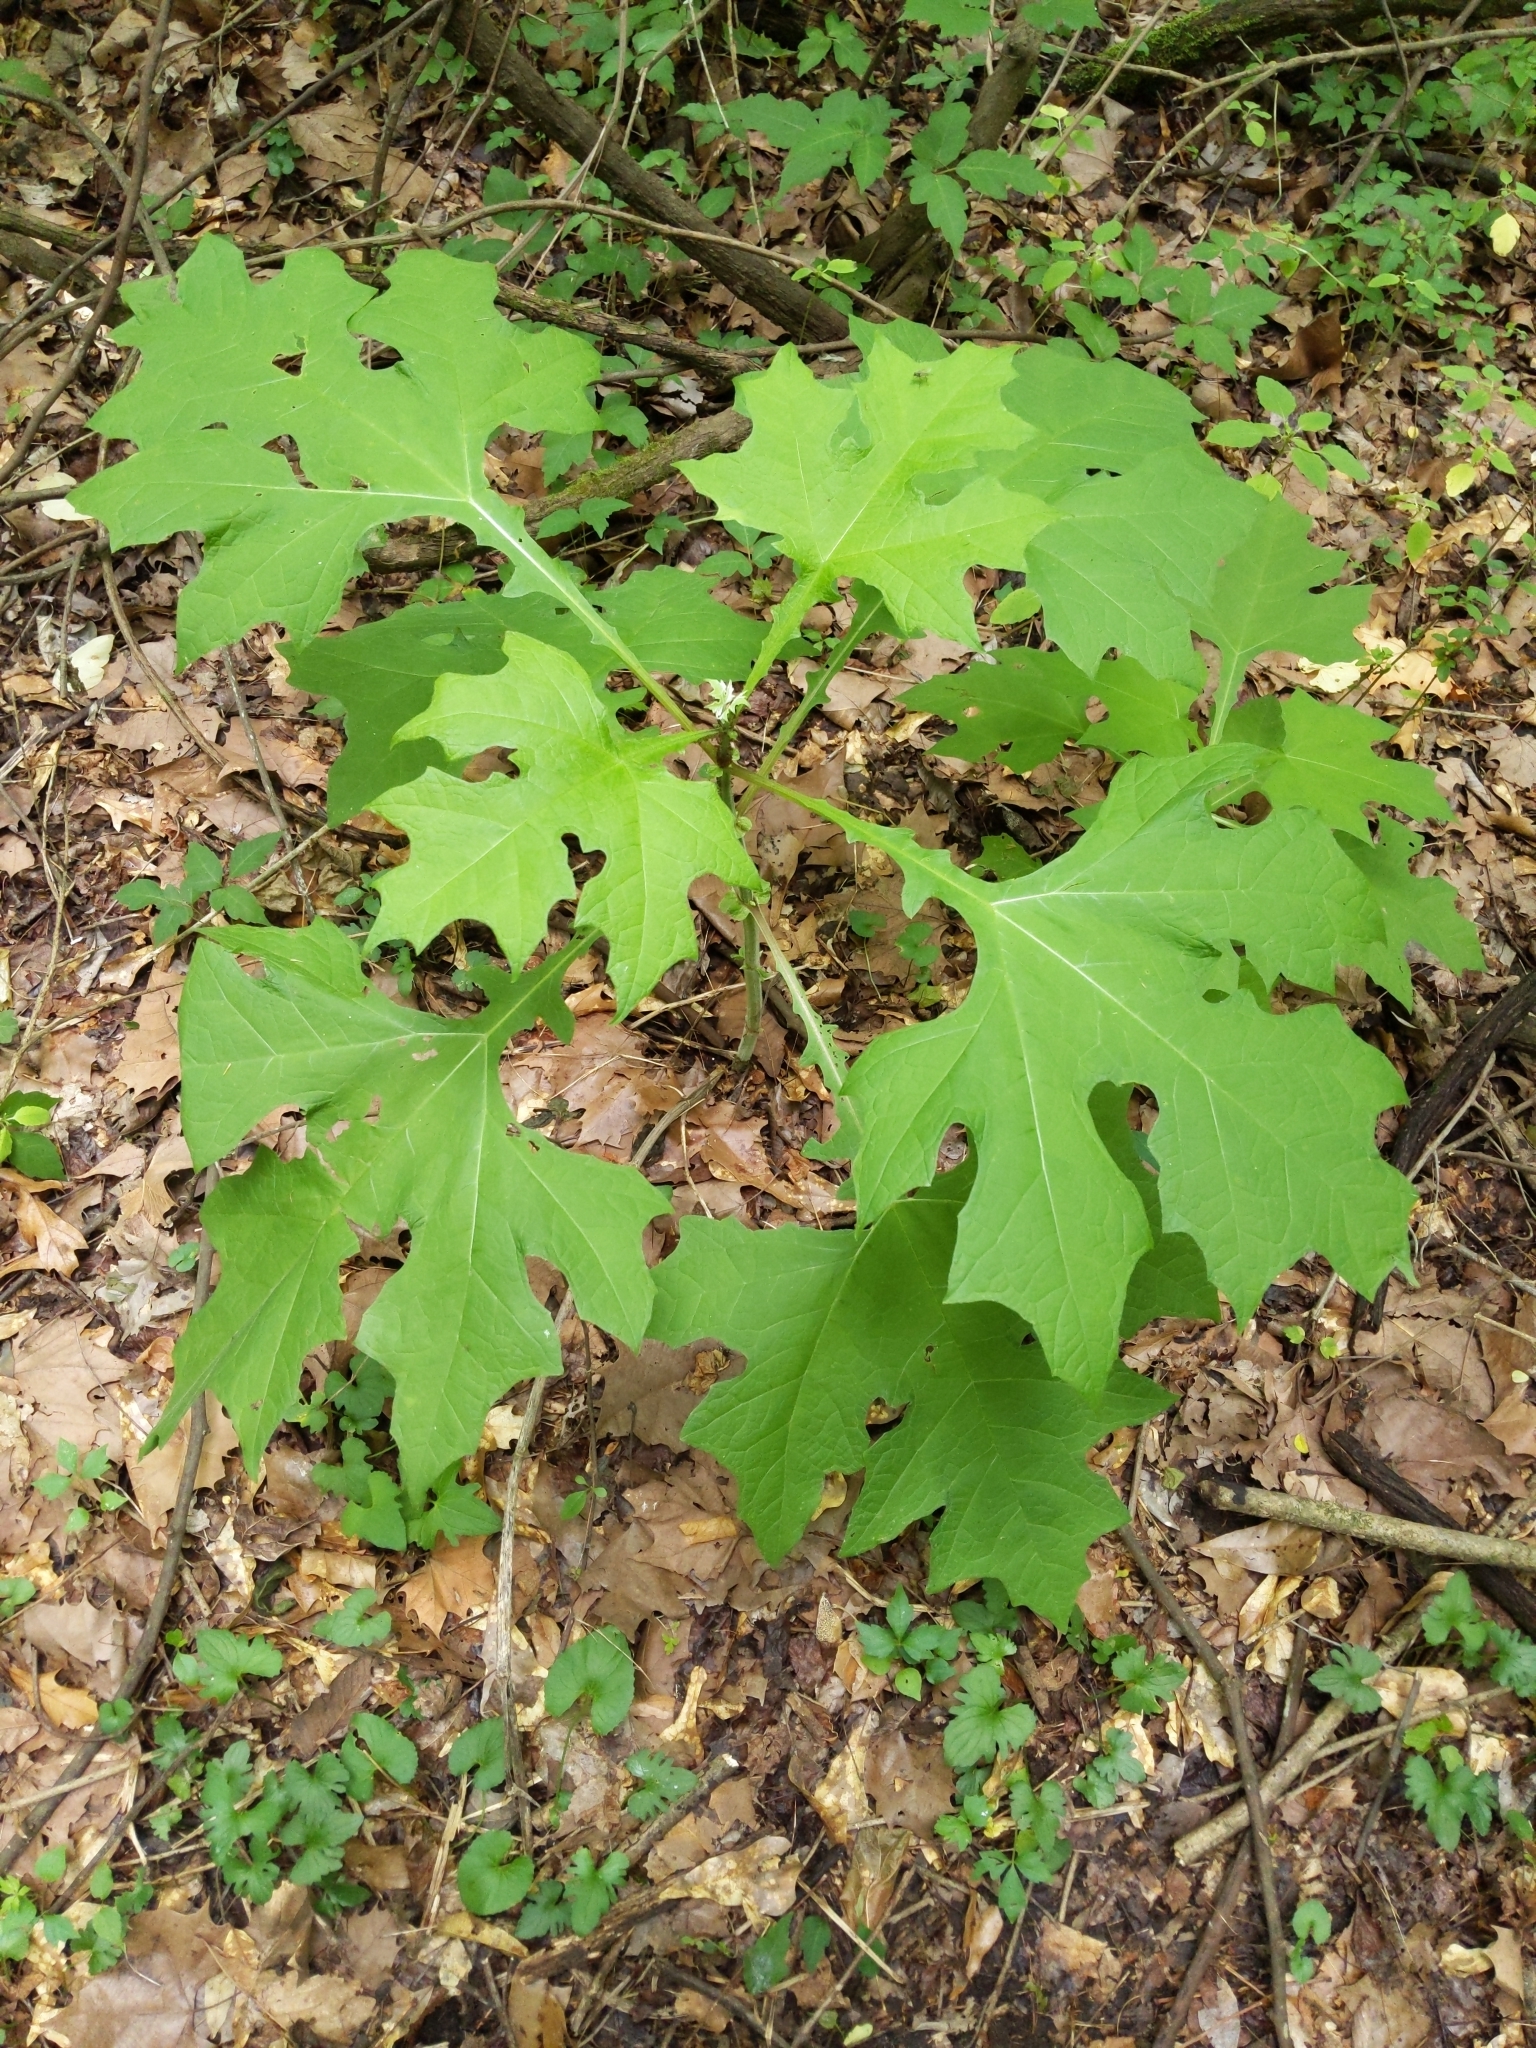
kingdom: Plantae
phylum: Tracheophyta
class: Magnoliopsida
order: Asterales
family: Asteraceae
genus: Smallanthus
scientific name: Smallanthus uvedalia
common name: Bear's-foot
